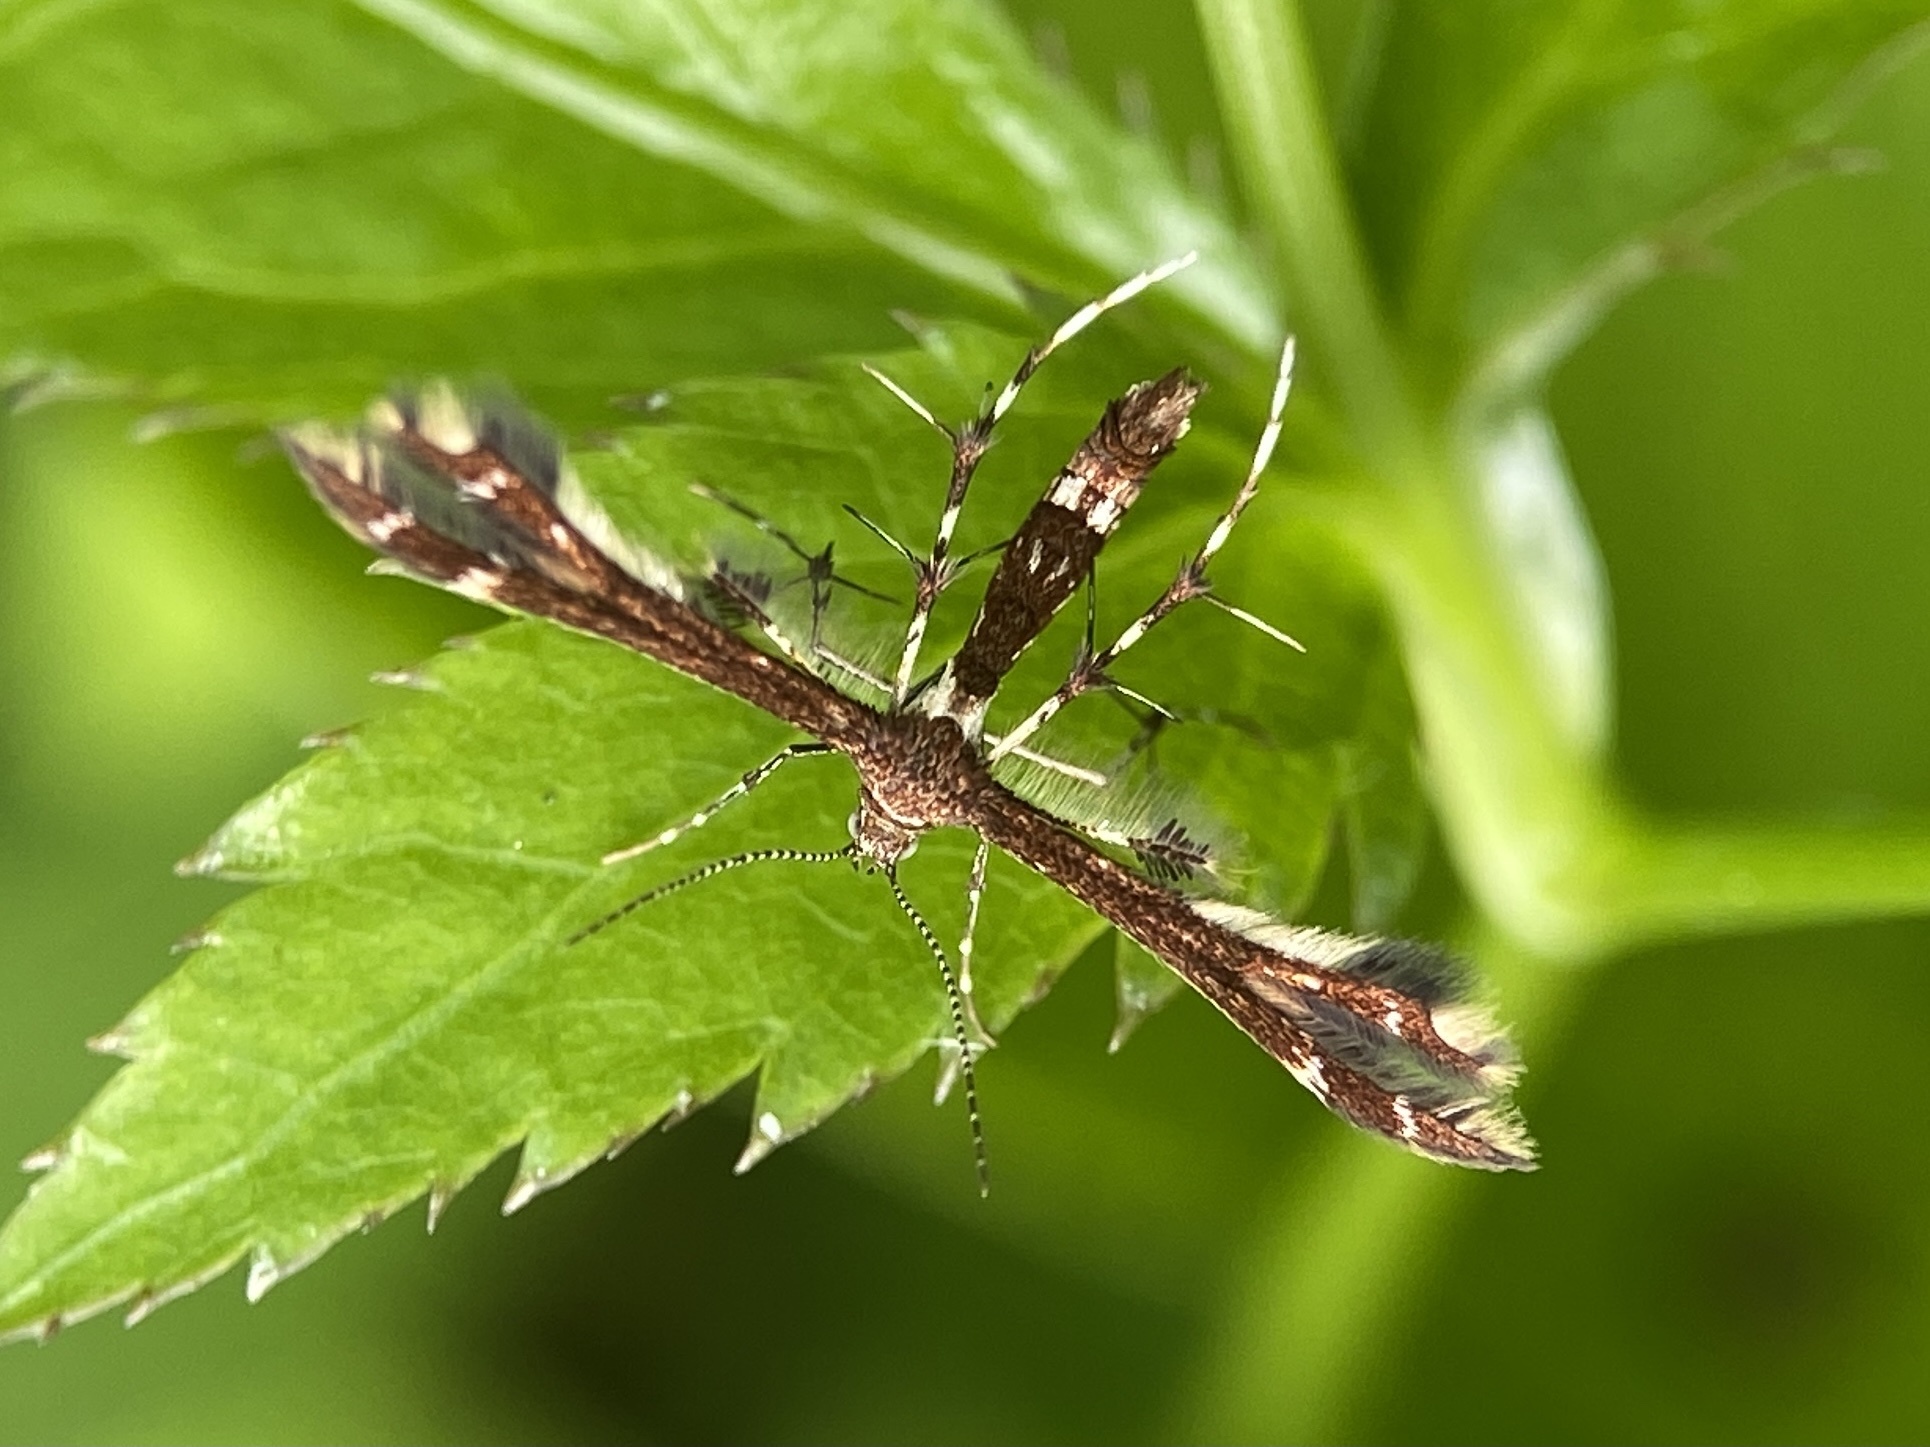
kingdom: Animalia
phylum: Arthropoda
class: Insecta
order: Lepidoptera
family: Pterophoridae
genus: Geina
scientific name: Geina
